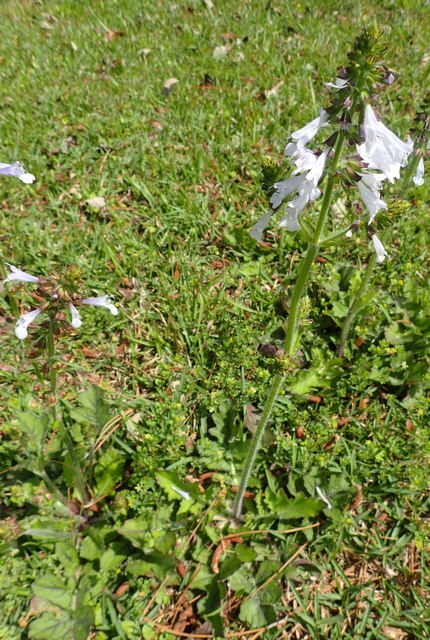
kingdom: Plantae
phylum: Tracheophyta
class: Magnoliopsida
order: Lamiales
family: Lamiaceae
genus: Salvia
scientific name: Salvia lyrata
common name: Cancerweed
